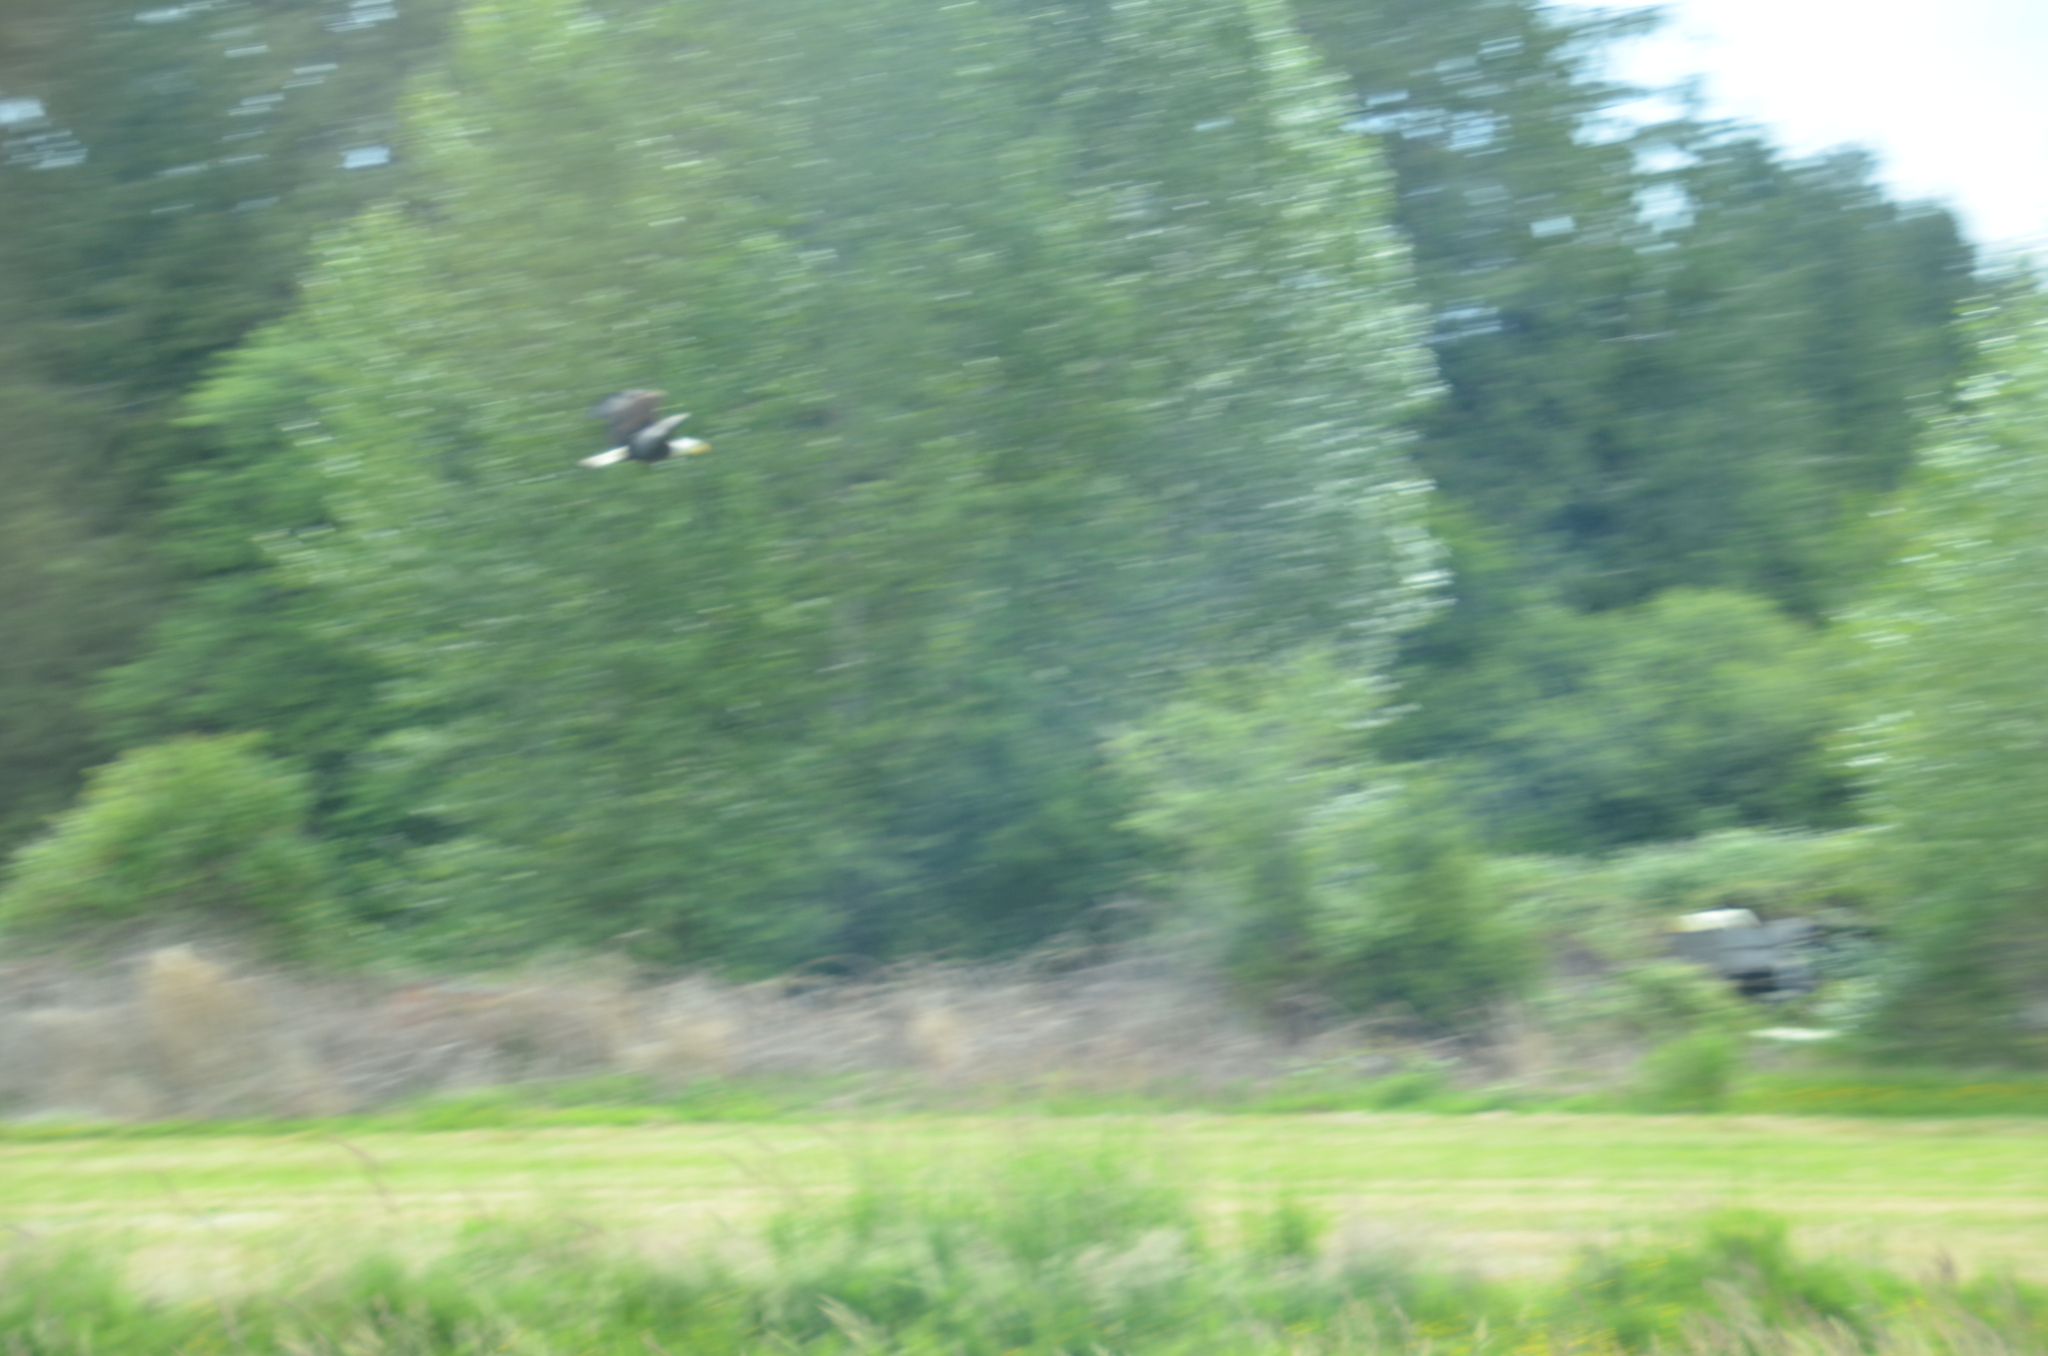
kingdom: Animalia
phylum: Chordata
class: Aves
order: Accipitriformes
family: Accipitridae
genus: Haliaeetus
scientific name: Haliaeetus leucocephalus
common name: Bald eagle
